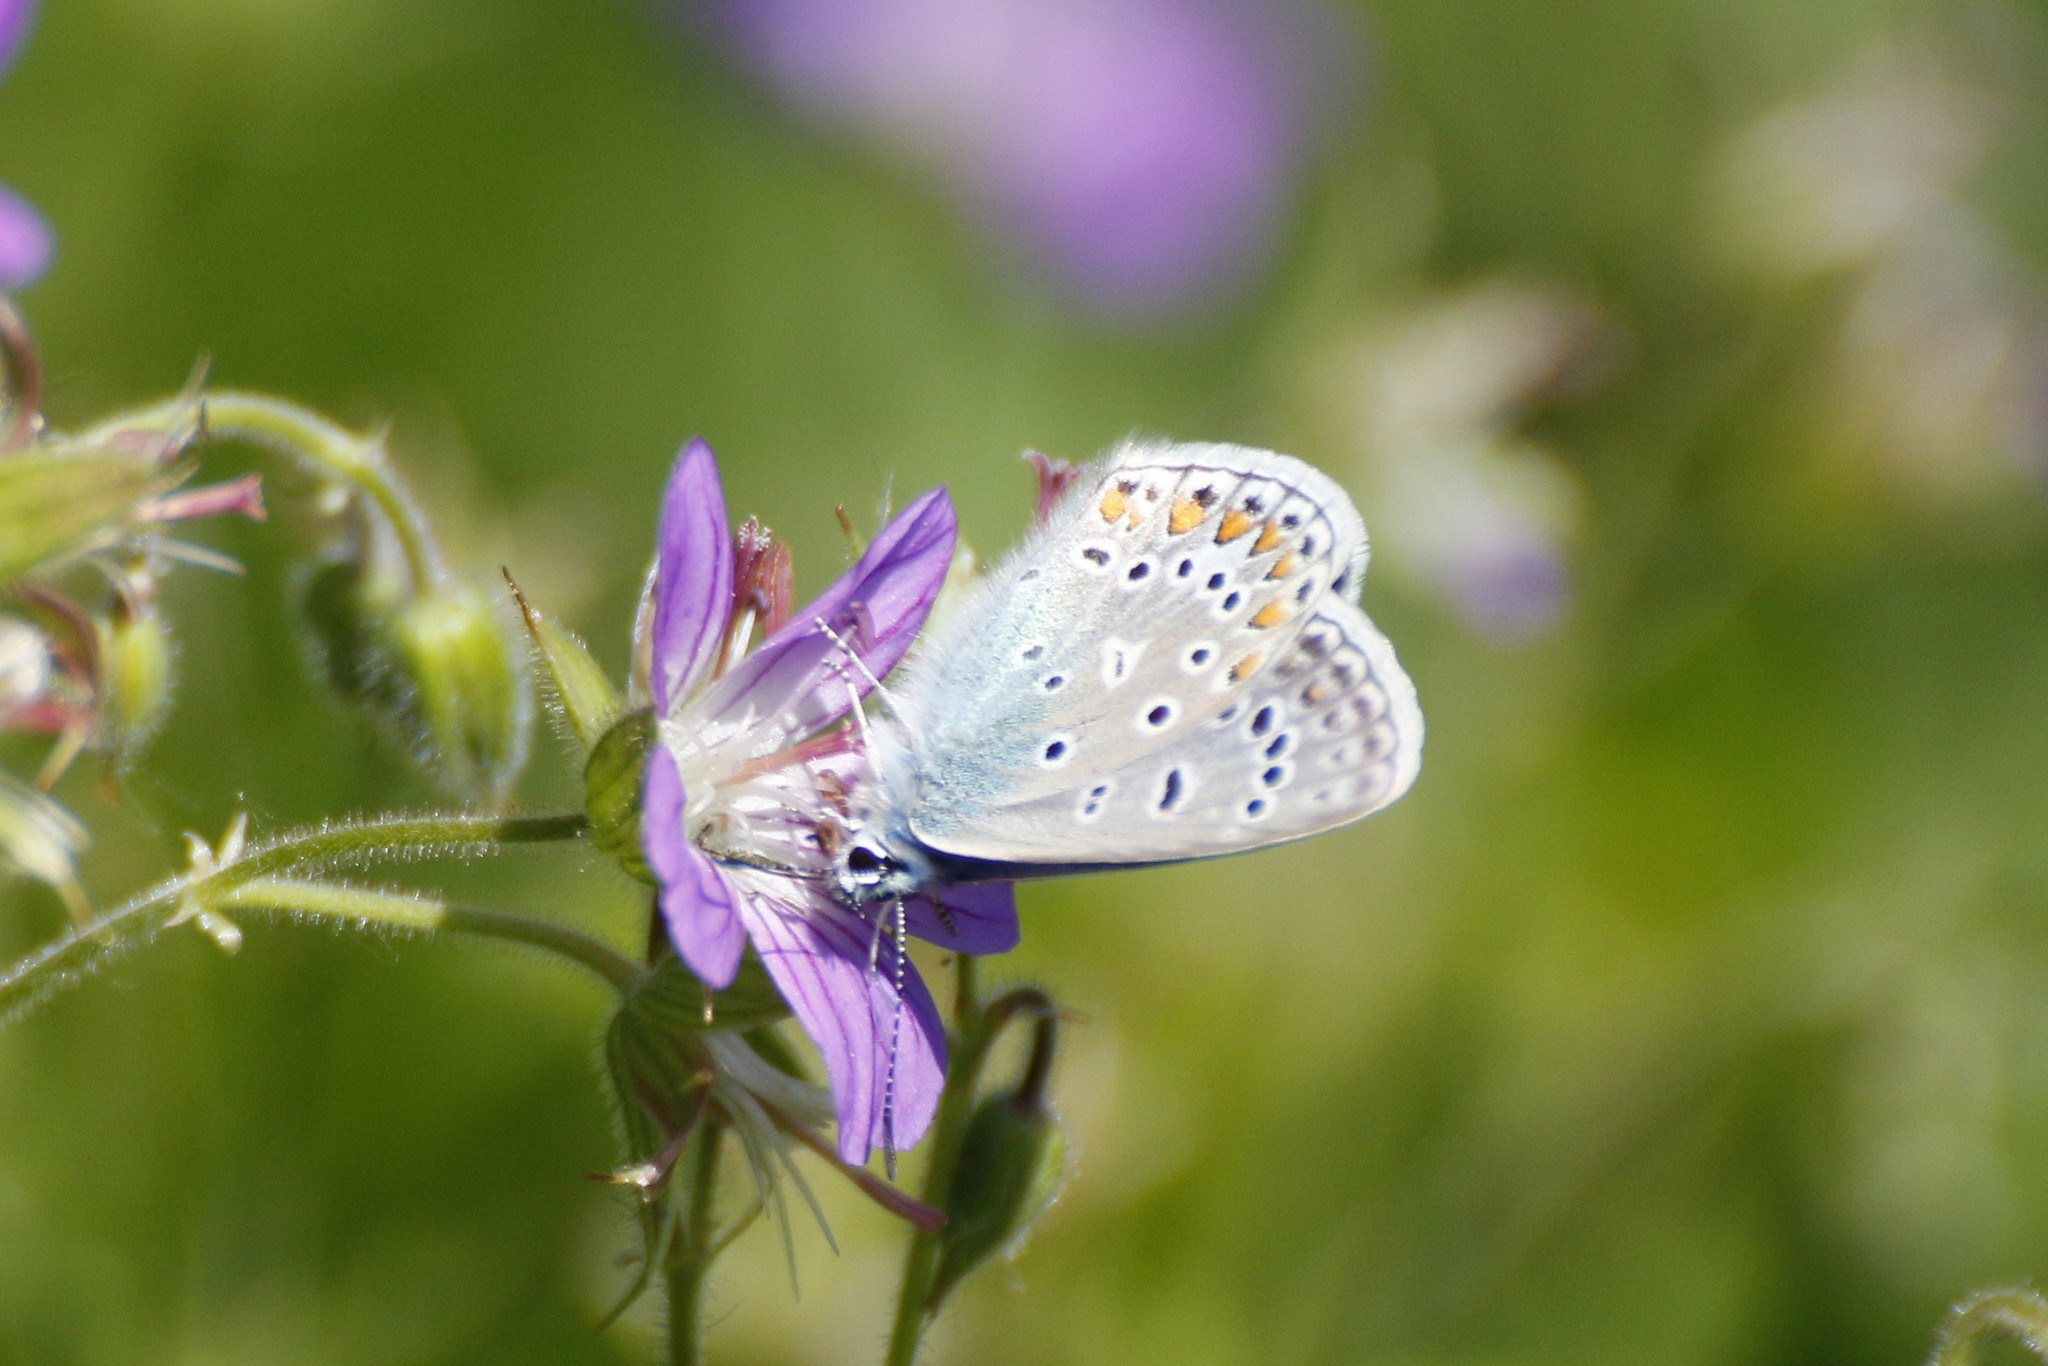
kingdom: Animalia
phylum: Arthropoda
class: Insecta
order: Lepidoptera
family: Lycaenidae
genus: Polyommatus
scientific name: Polyommatus icarus
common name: Common blue
